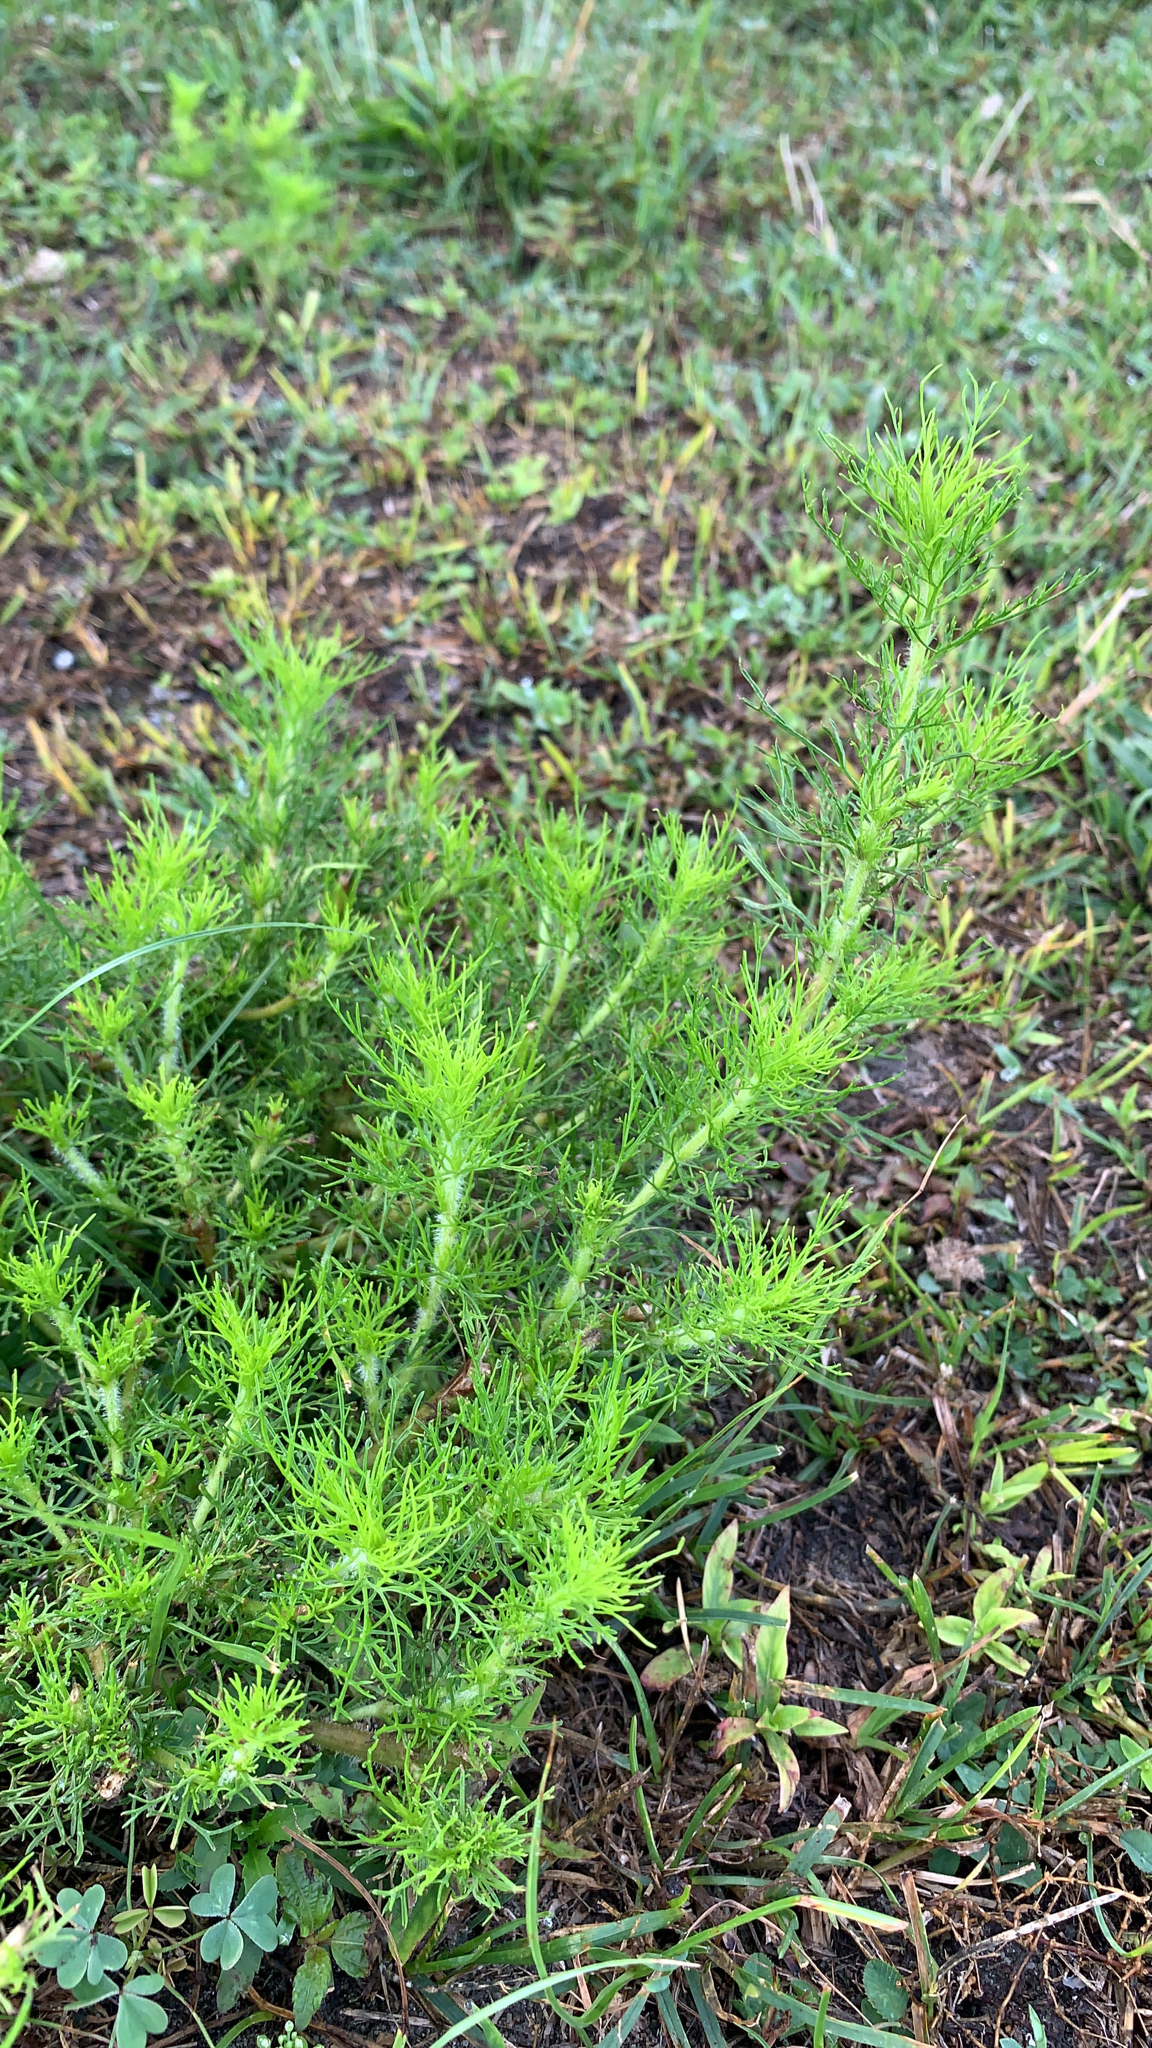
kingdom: Plantae
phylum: Tracheophyta
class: Magnoliopsida
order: Asterales
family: Asteraceae
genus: Eupatorium
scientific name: Eupatorium capillifolium
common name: Dog-fennel
